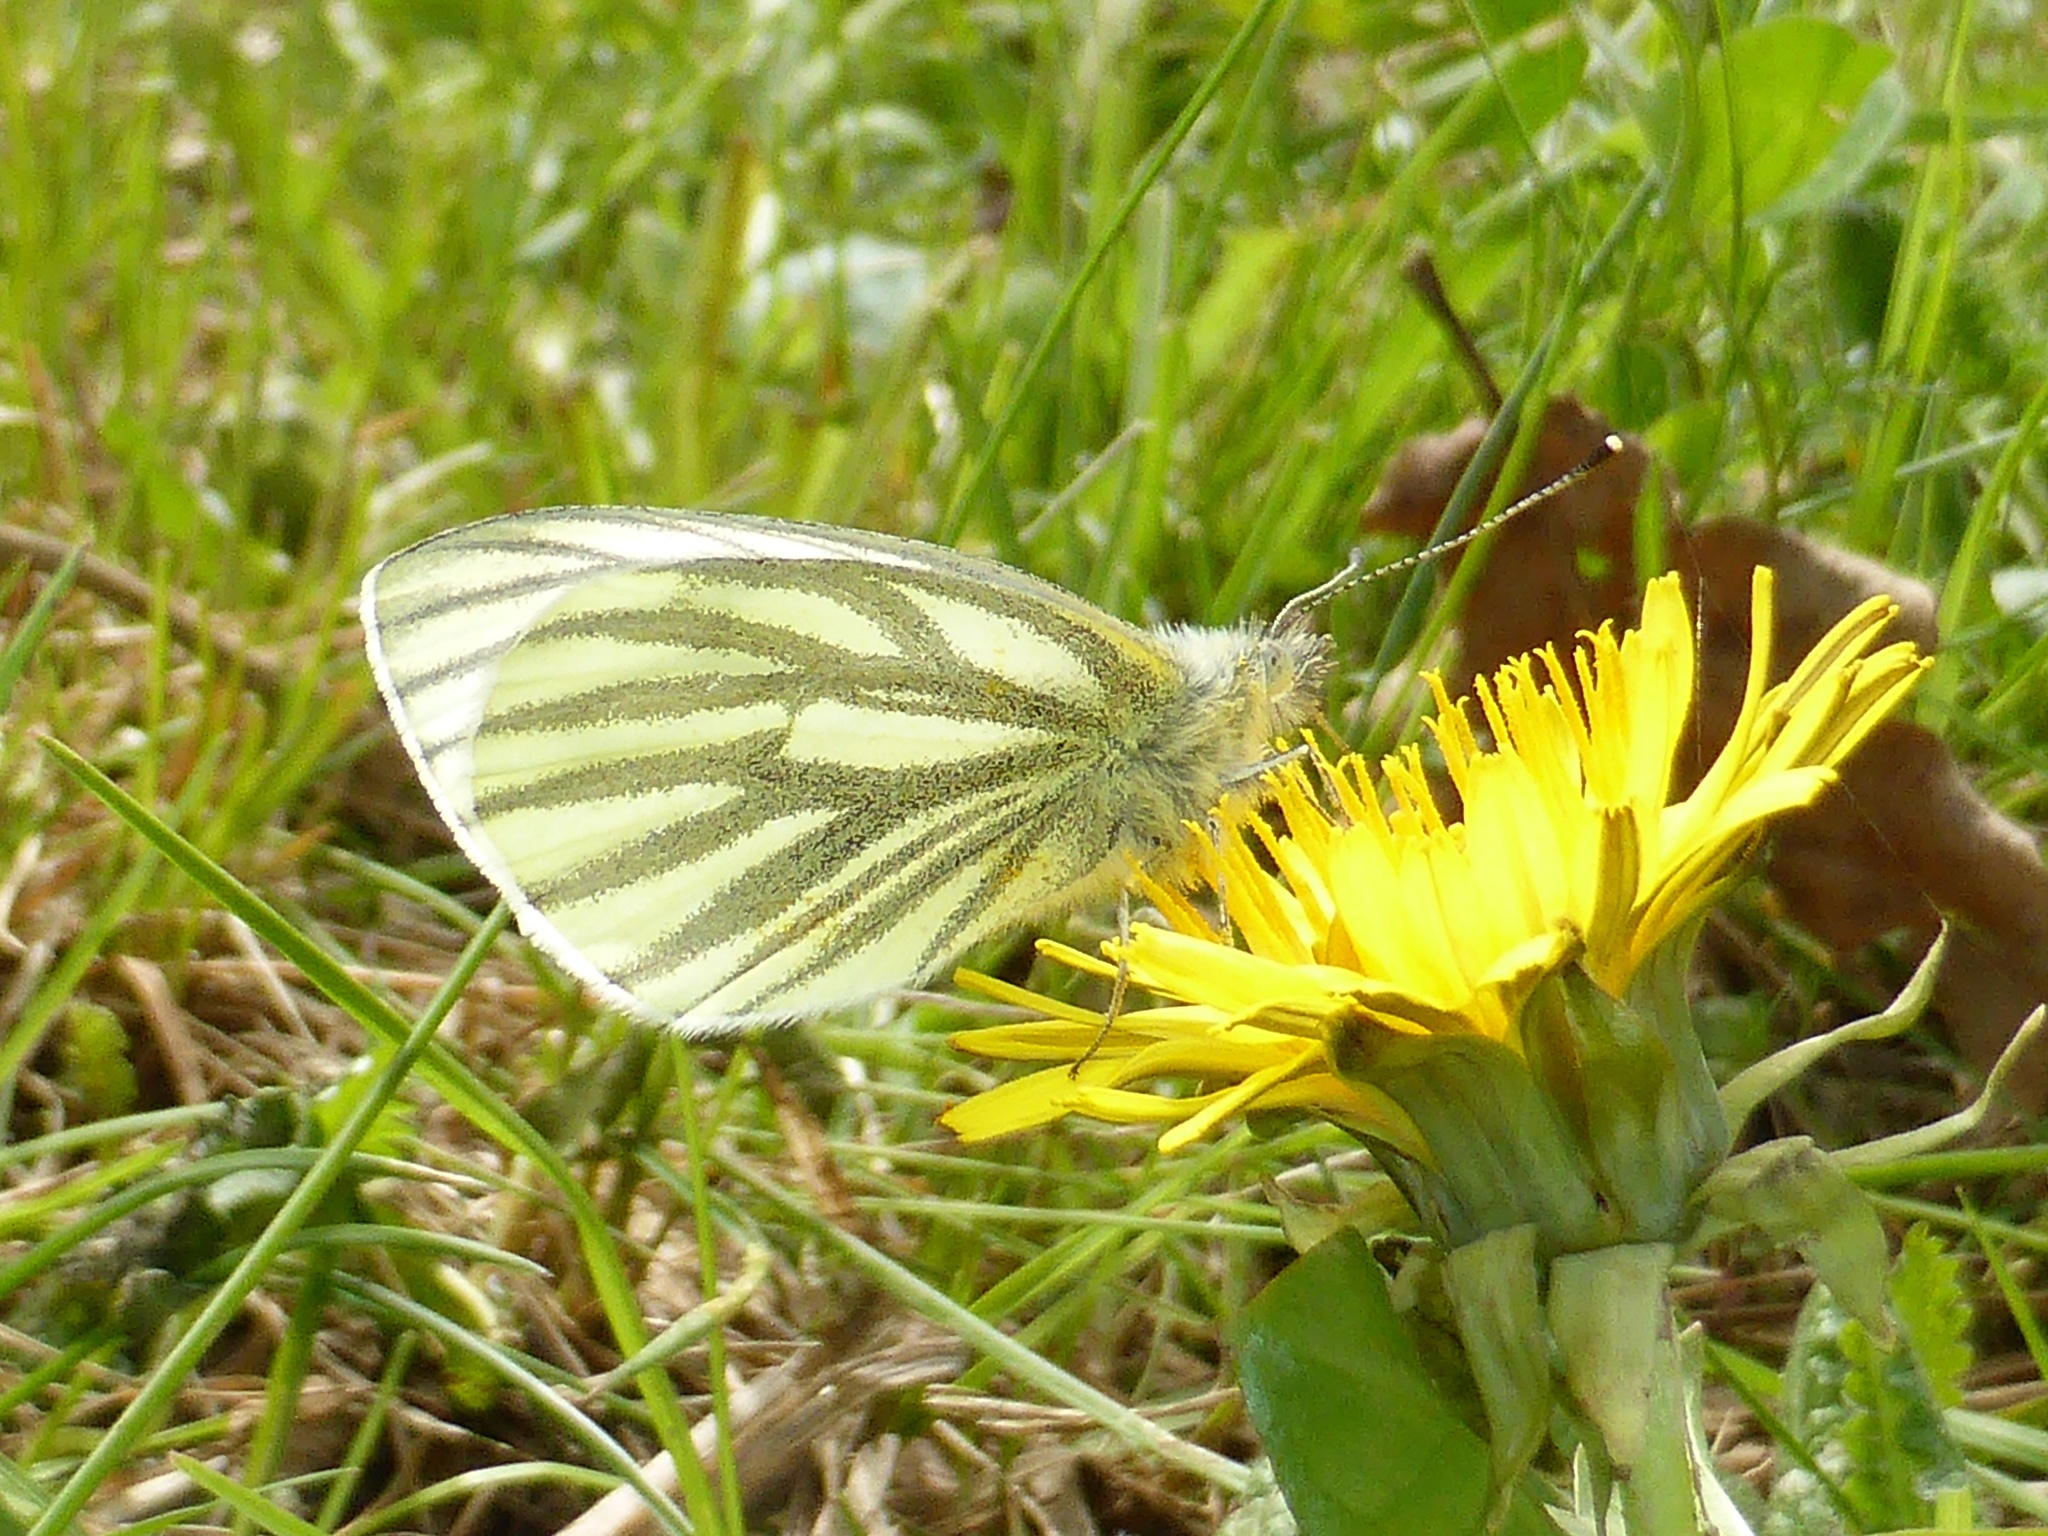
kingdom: Animalia
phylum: Arthropoda
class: Insecta
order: Lepidoptera
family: Pieridae
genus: Pieris
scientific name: Pieris napi
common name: Green-veined white
